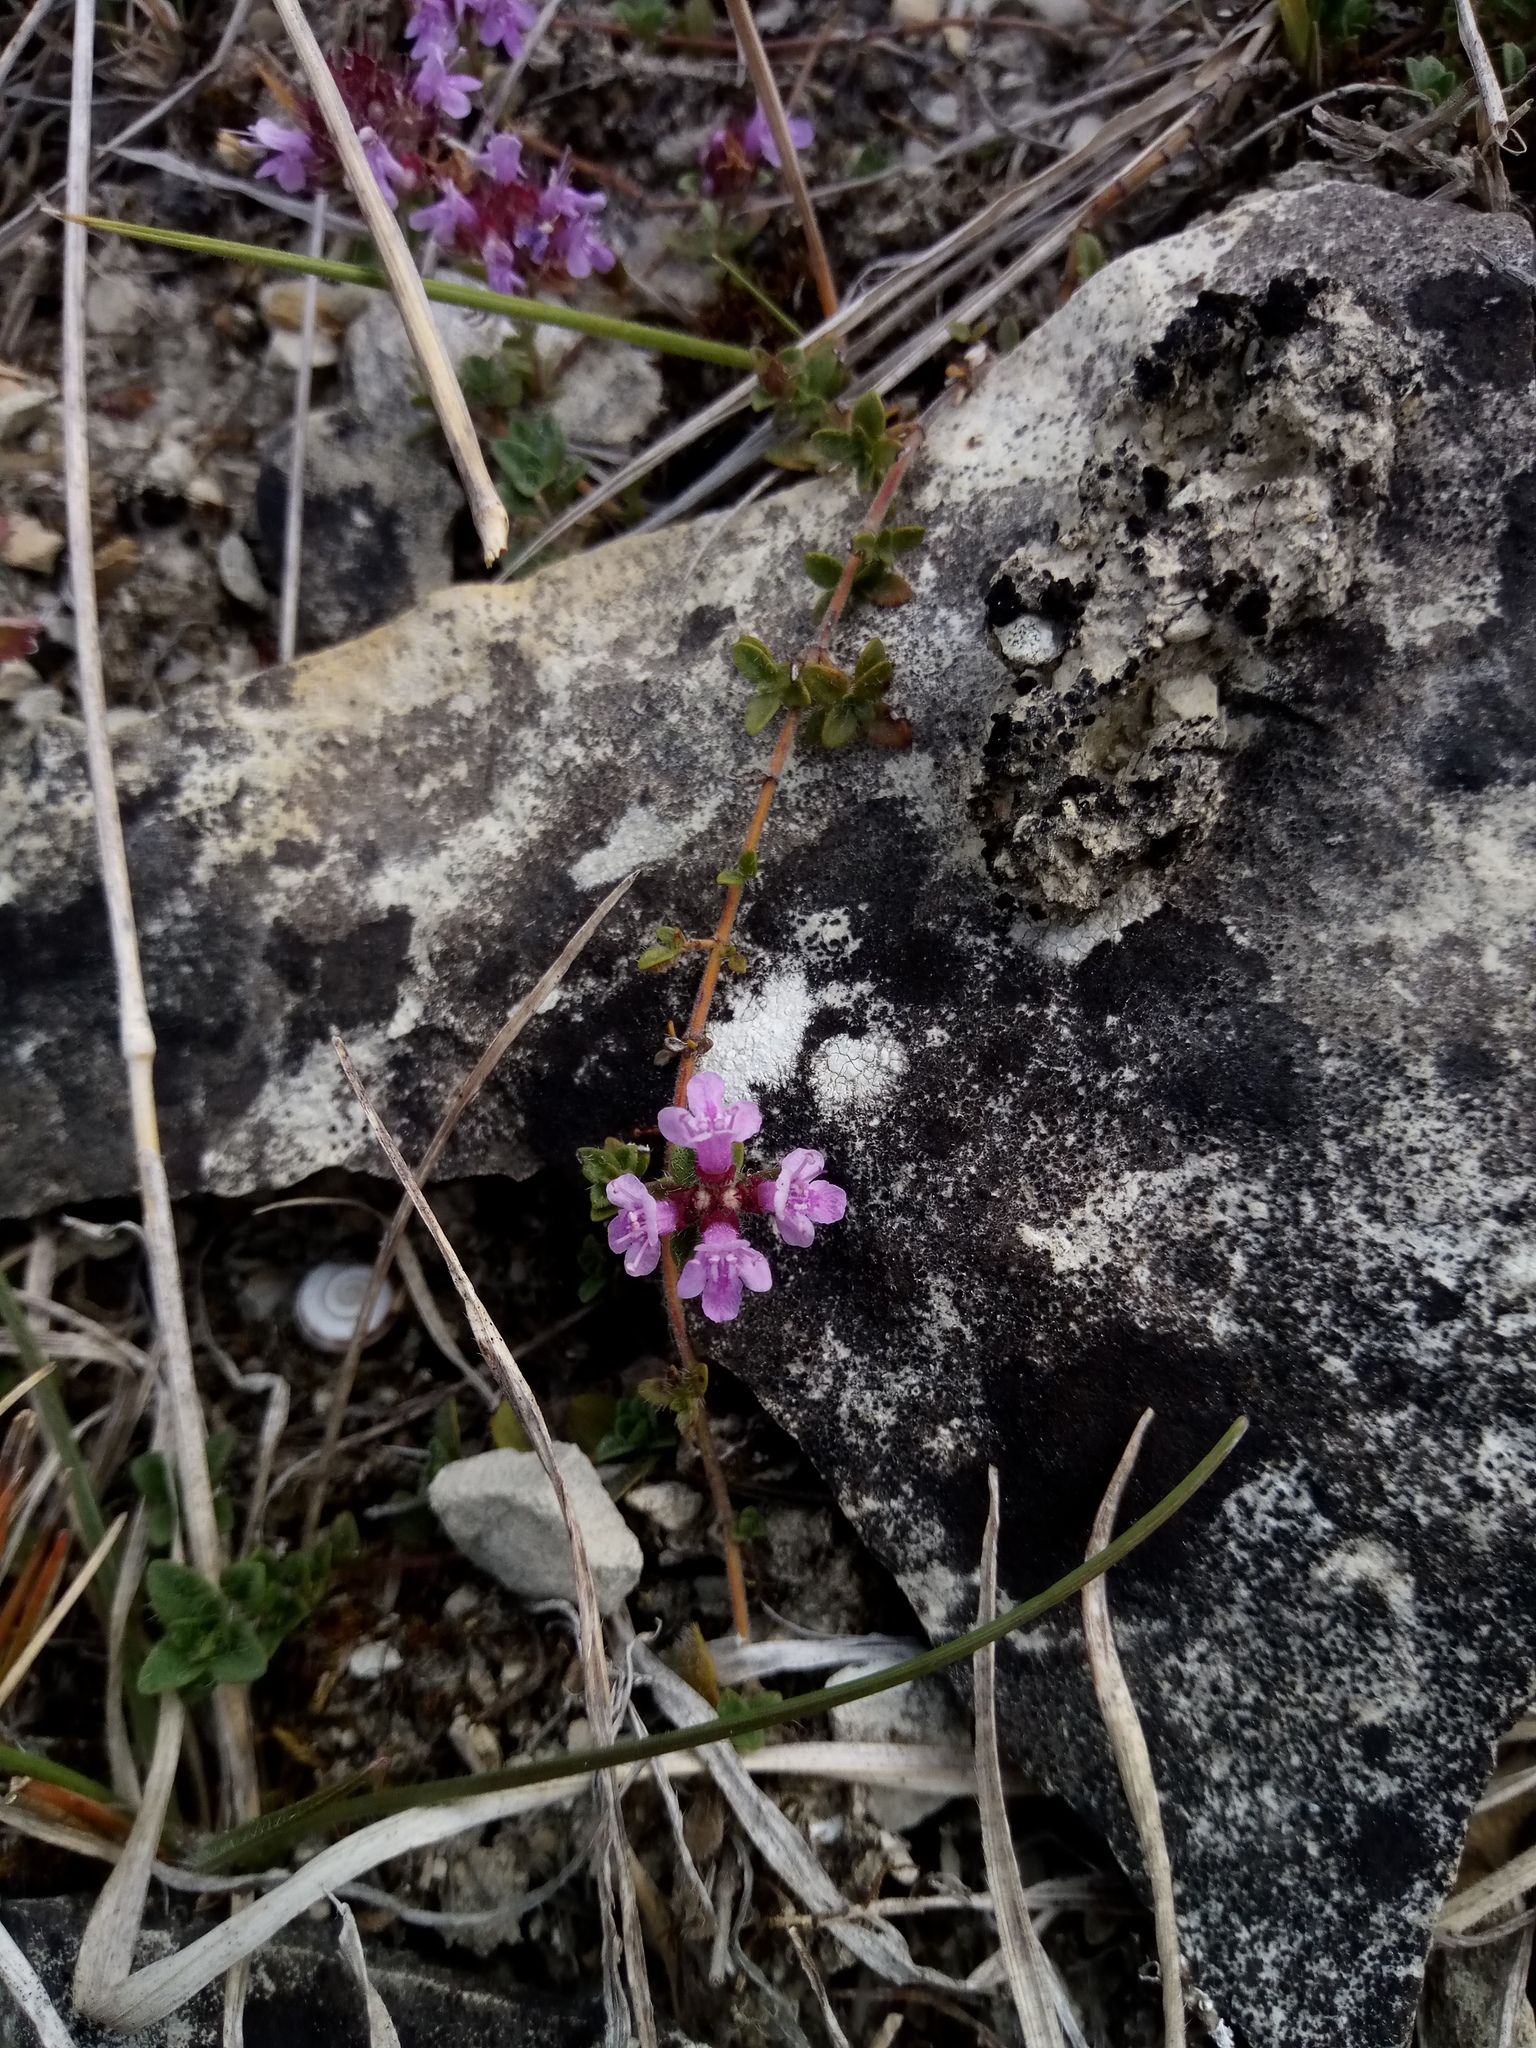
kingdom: Plantae
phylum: Tracheophyta
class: Magnoliopsida
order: Lamiales
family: Lamiaceae
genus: Thymus
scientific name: Thymus praecox
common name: Wild thyme
